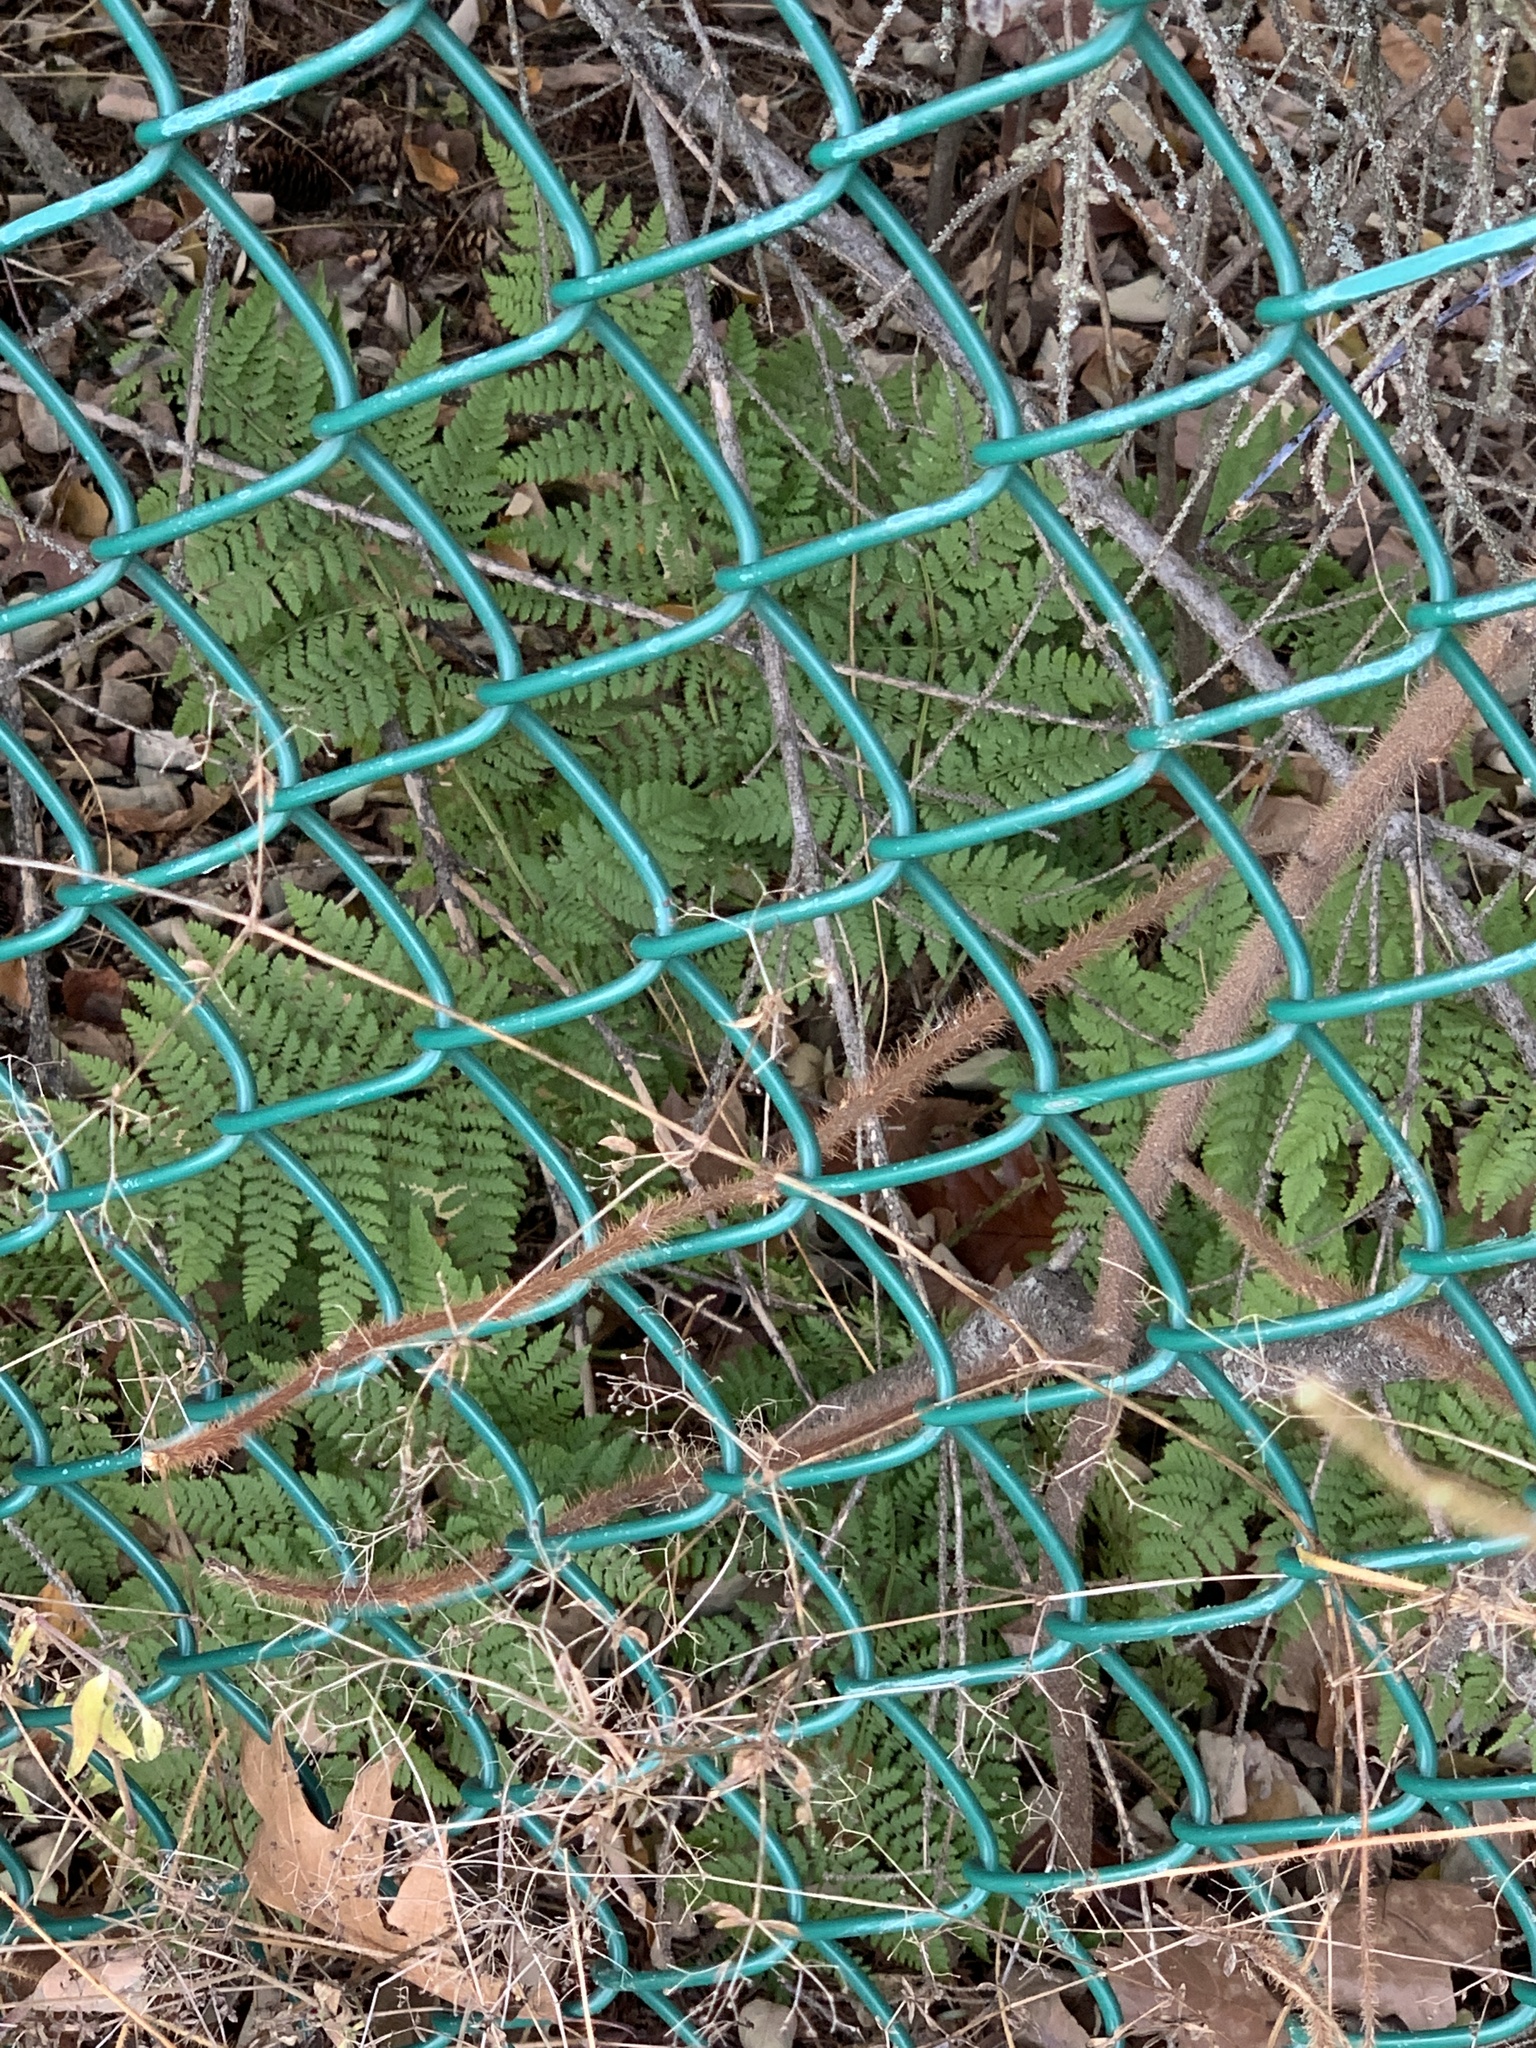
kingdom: Plantae
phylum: Tracheophyta
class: Polypodiopsida
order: Polypodiales
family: Dryopteridaceae
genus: Dryopteris
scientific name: Dryopteris intermedia
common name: Evergreen wood fern
